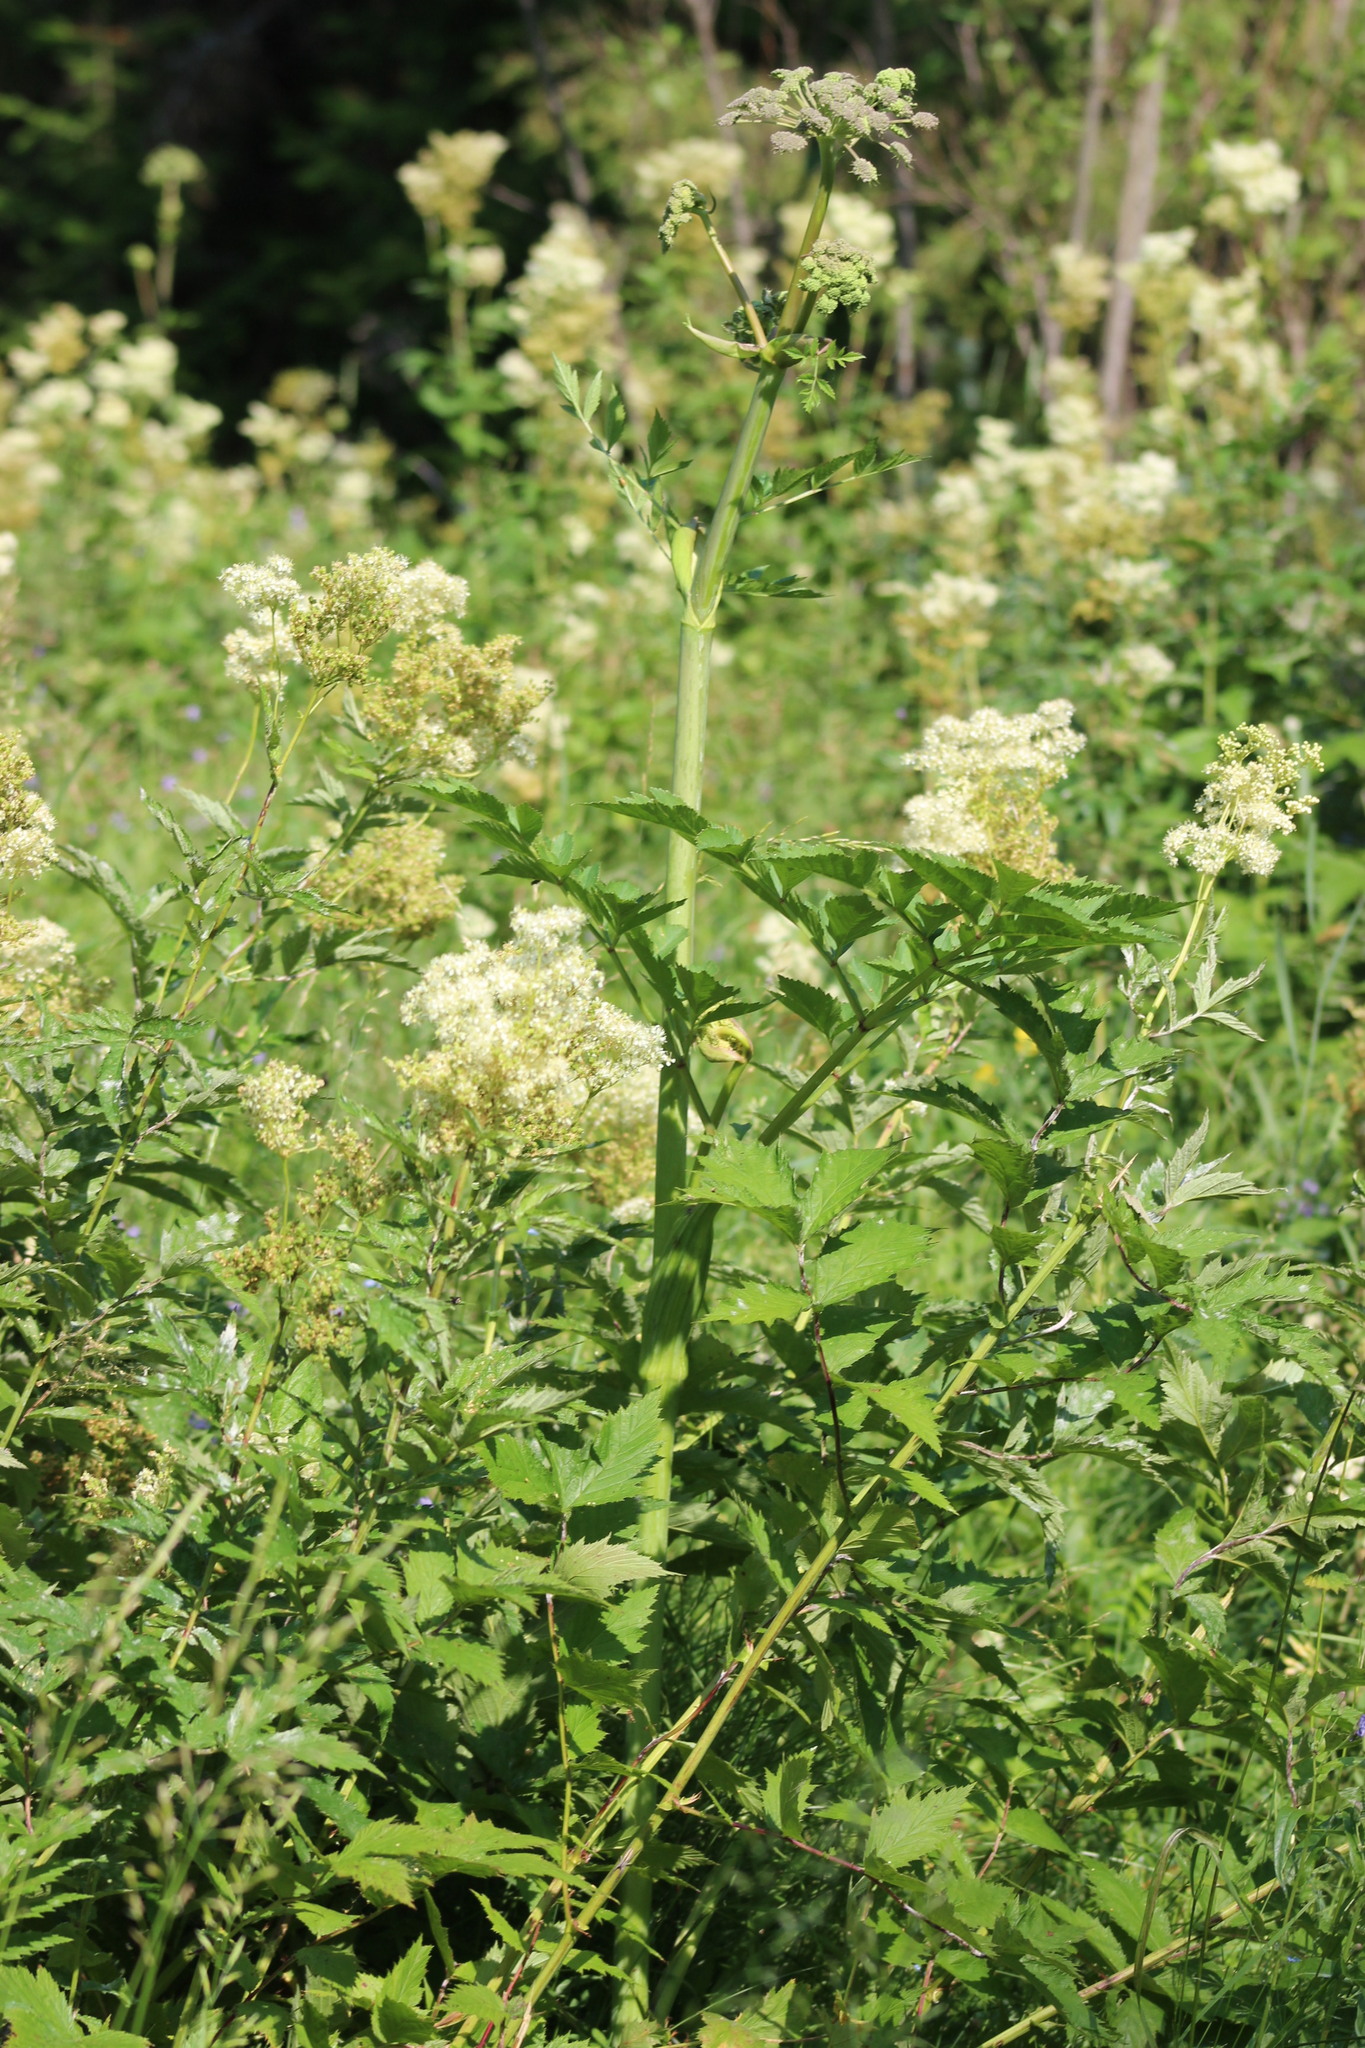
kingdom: Plantae
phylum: Tracheophyta
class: Magnoliopsida
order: Apiales
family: Apiaceae
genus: Angelica
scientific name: Angelica sylvestris
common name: Wild angelica
